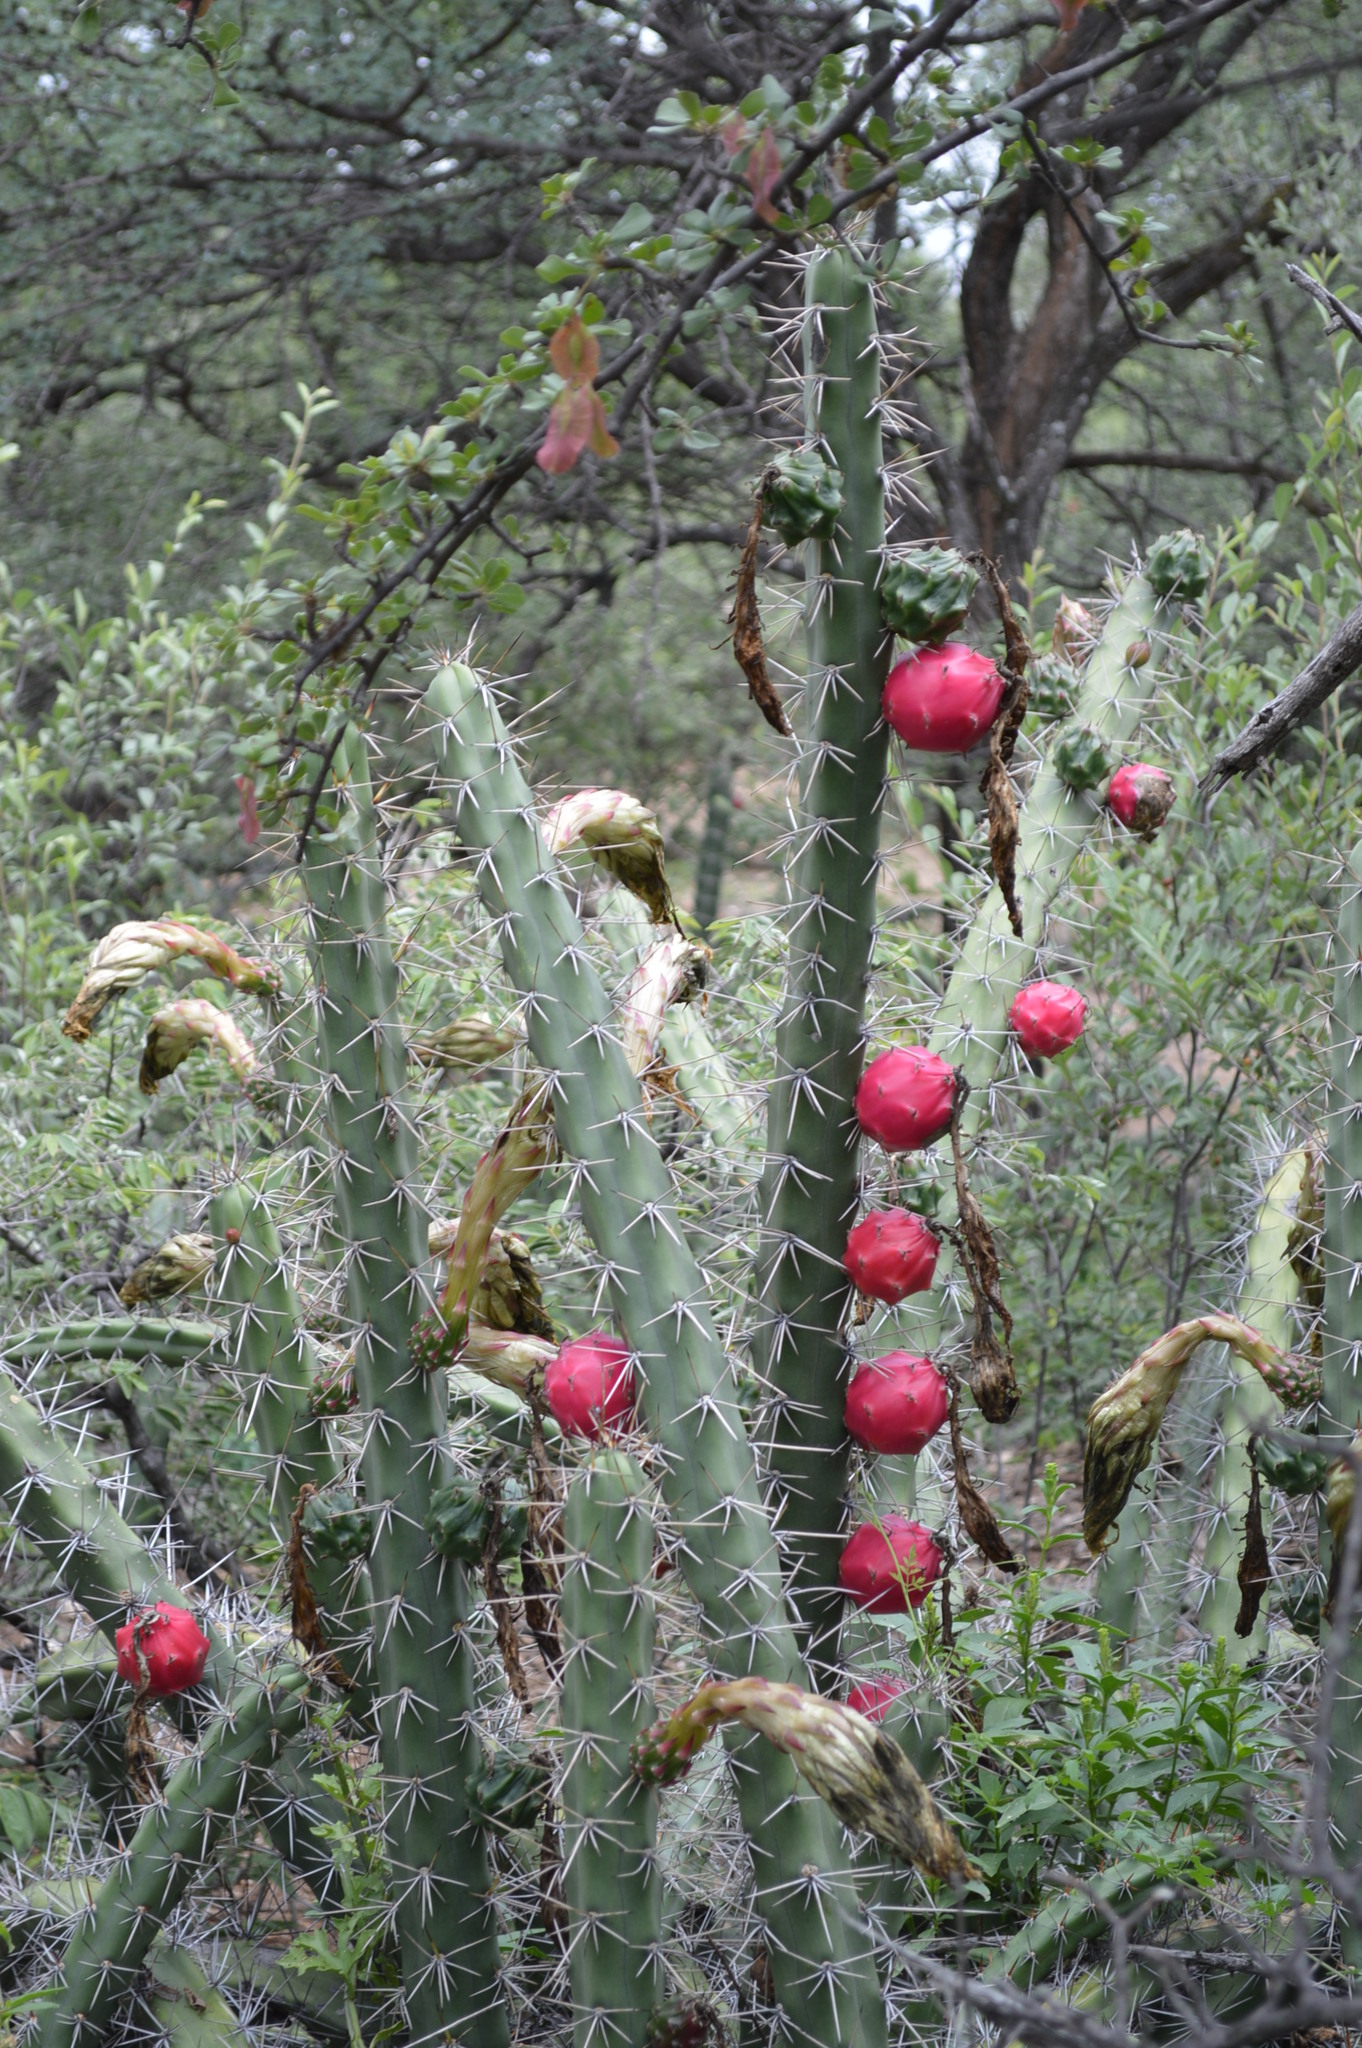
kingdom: Plantae
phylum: Tracheophyta
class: Magnoliopsida
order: Caryophyllales
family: Cactaceae
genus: Harrisia
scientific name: Harrisia pomanensis
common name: Midnight-lady
